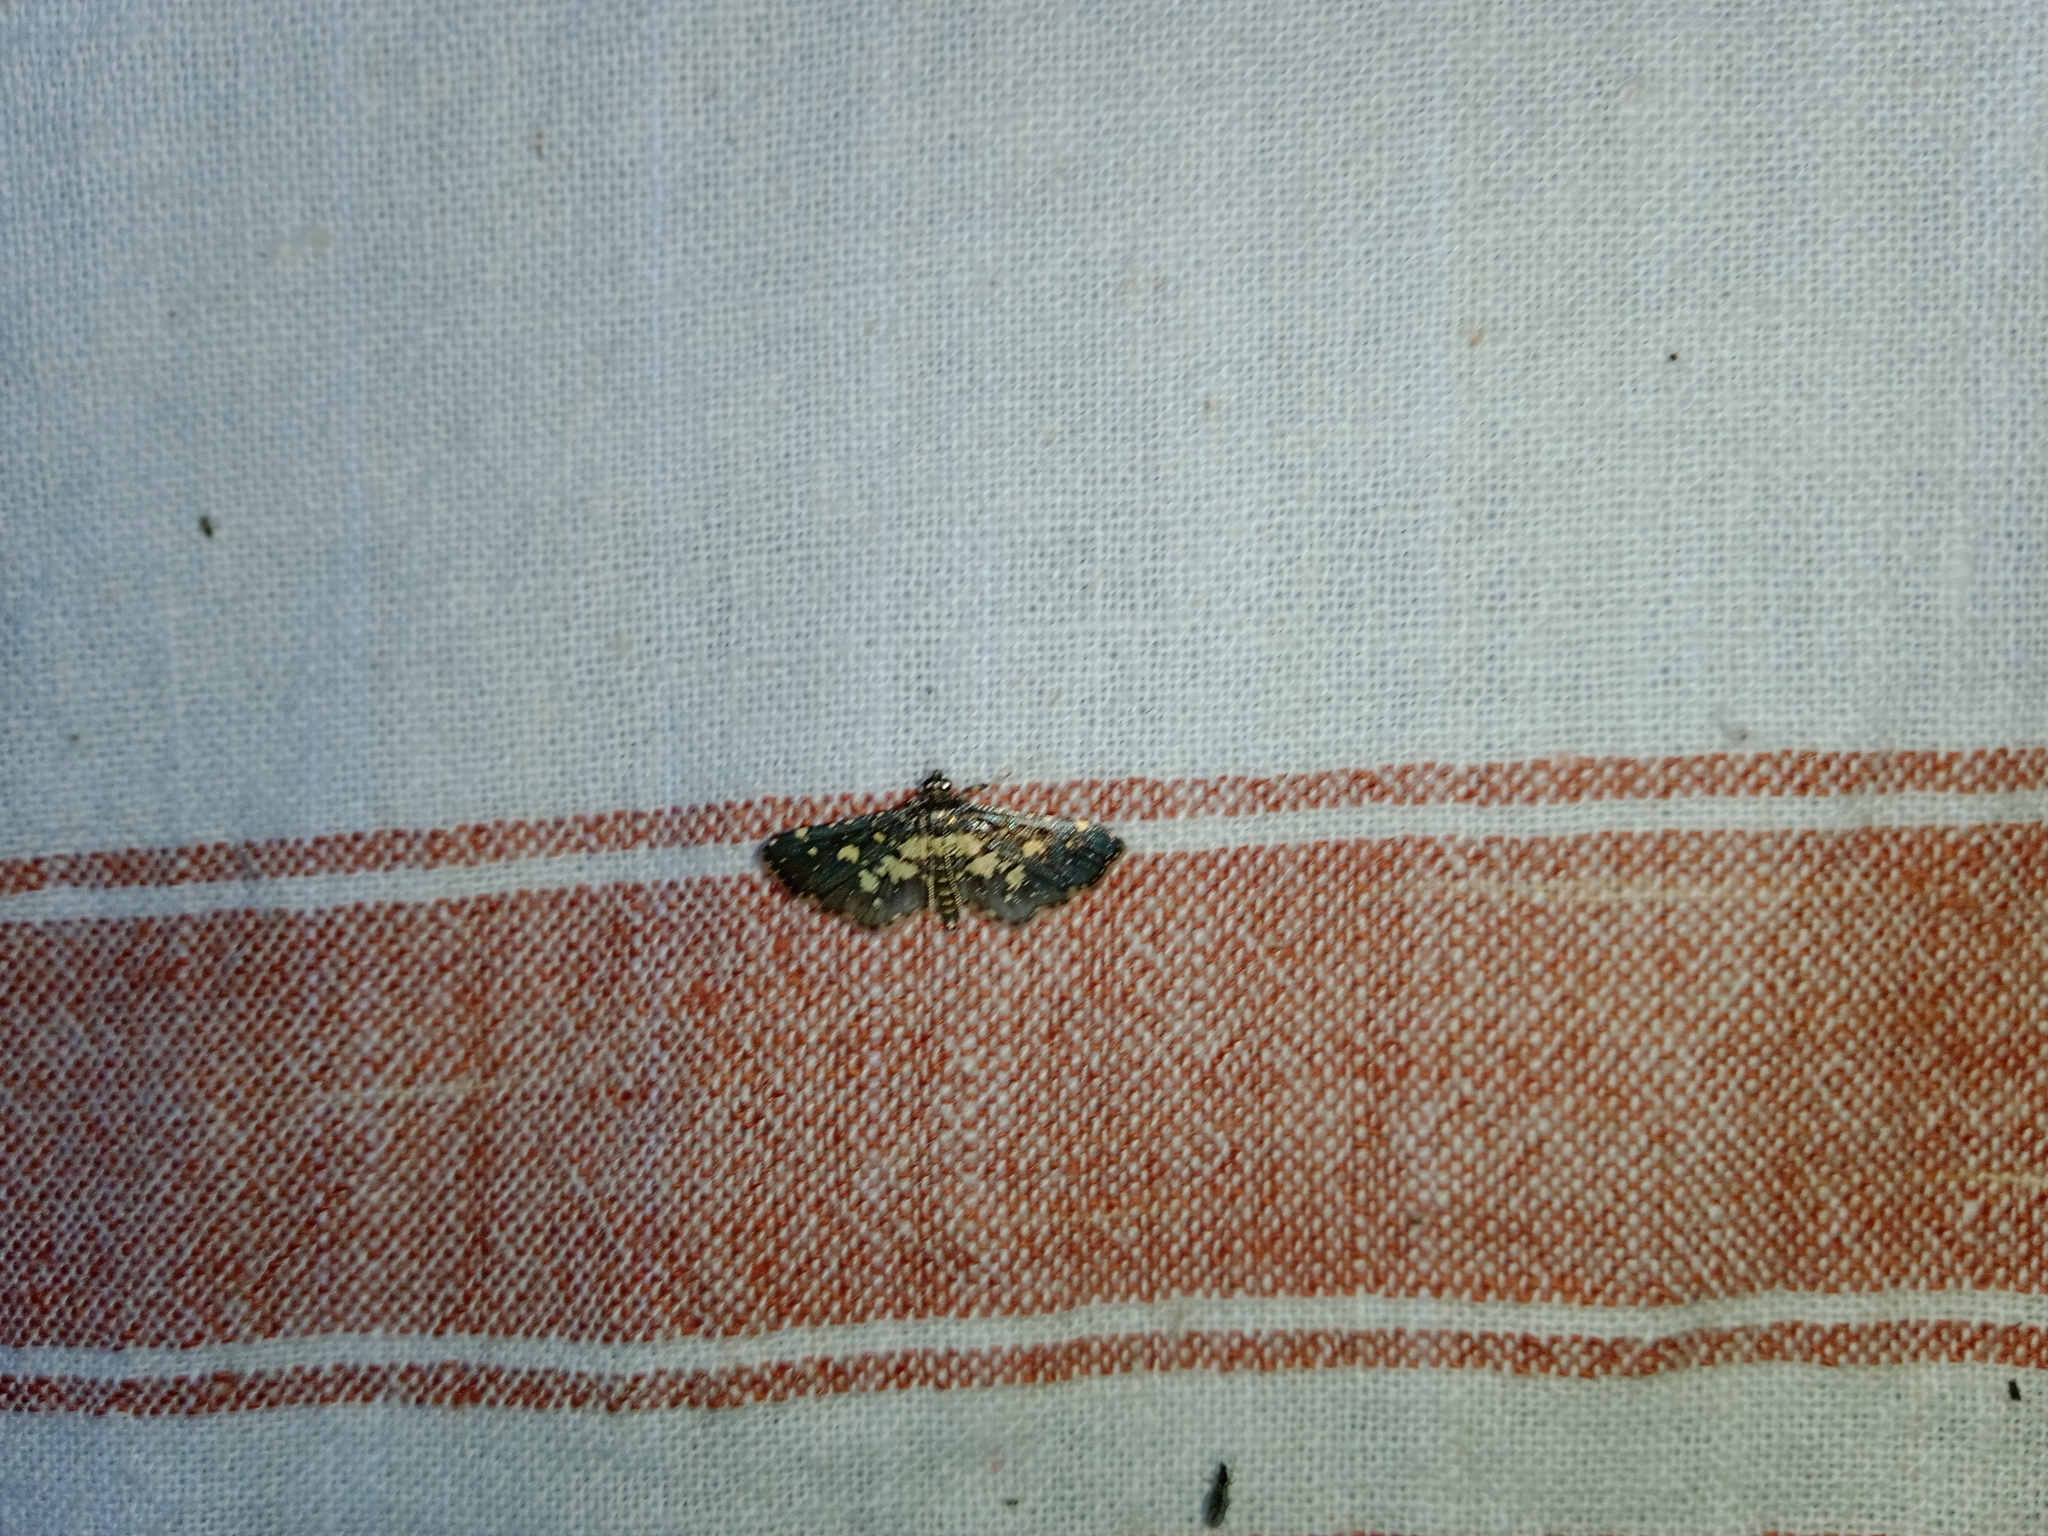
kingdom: Animalia
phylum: Arthropoda
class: Insecta
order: Lepidoptera
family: Crambidae
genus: Eurrhyparodes
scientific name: Eurrhyparodes bracteolalis
